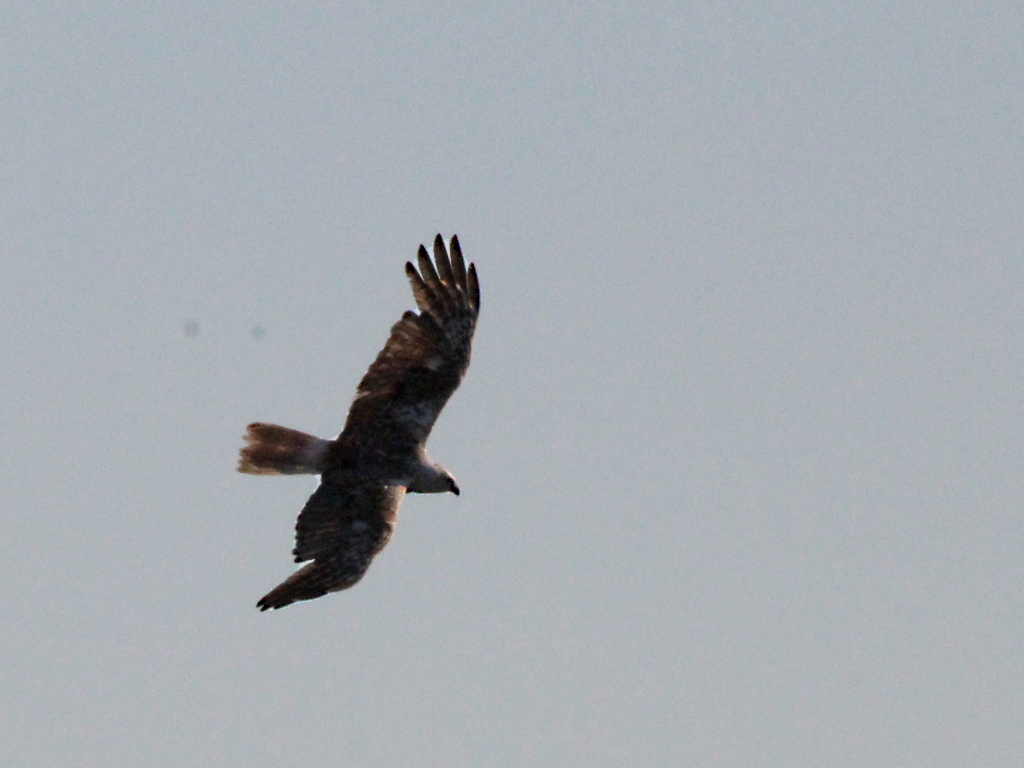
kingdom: Animalia
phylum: Chordata
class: Aves
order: Accipitriformes
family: Accipitridae
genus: Circus
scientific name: Circus aeruginosus
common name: Western marsh harrier
